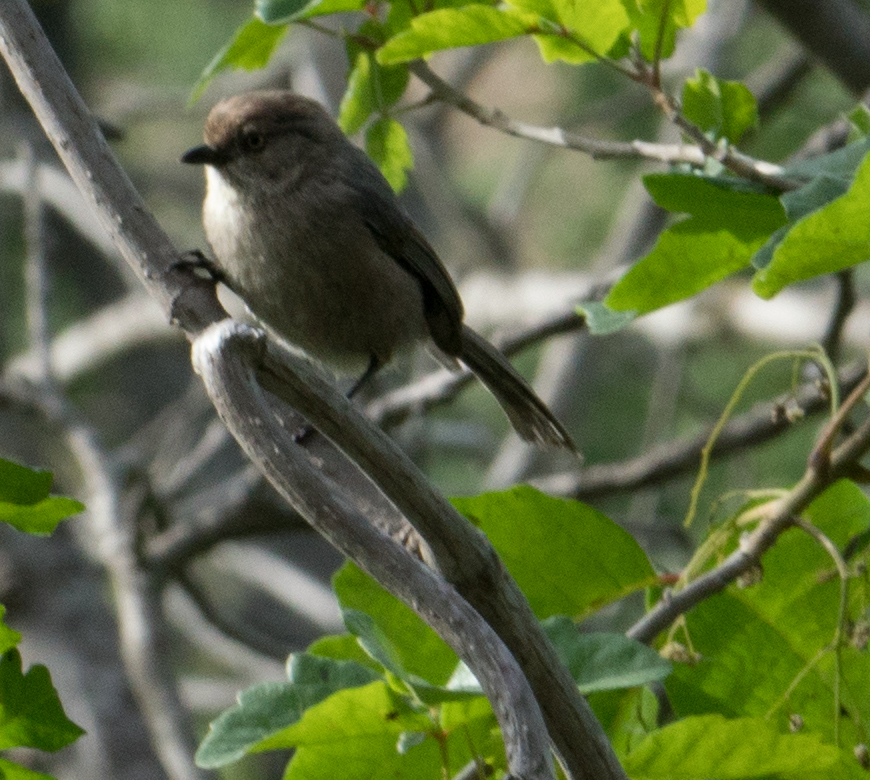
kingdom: Animalia
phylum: Chordata
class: Aves
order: Passeriformes
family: Aegithalidae
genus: Psaltriparus
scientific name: Psaltriparus minimus
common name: American bushtit
